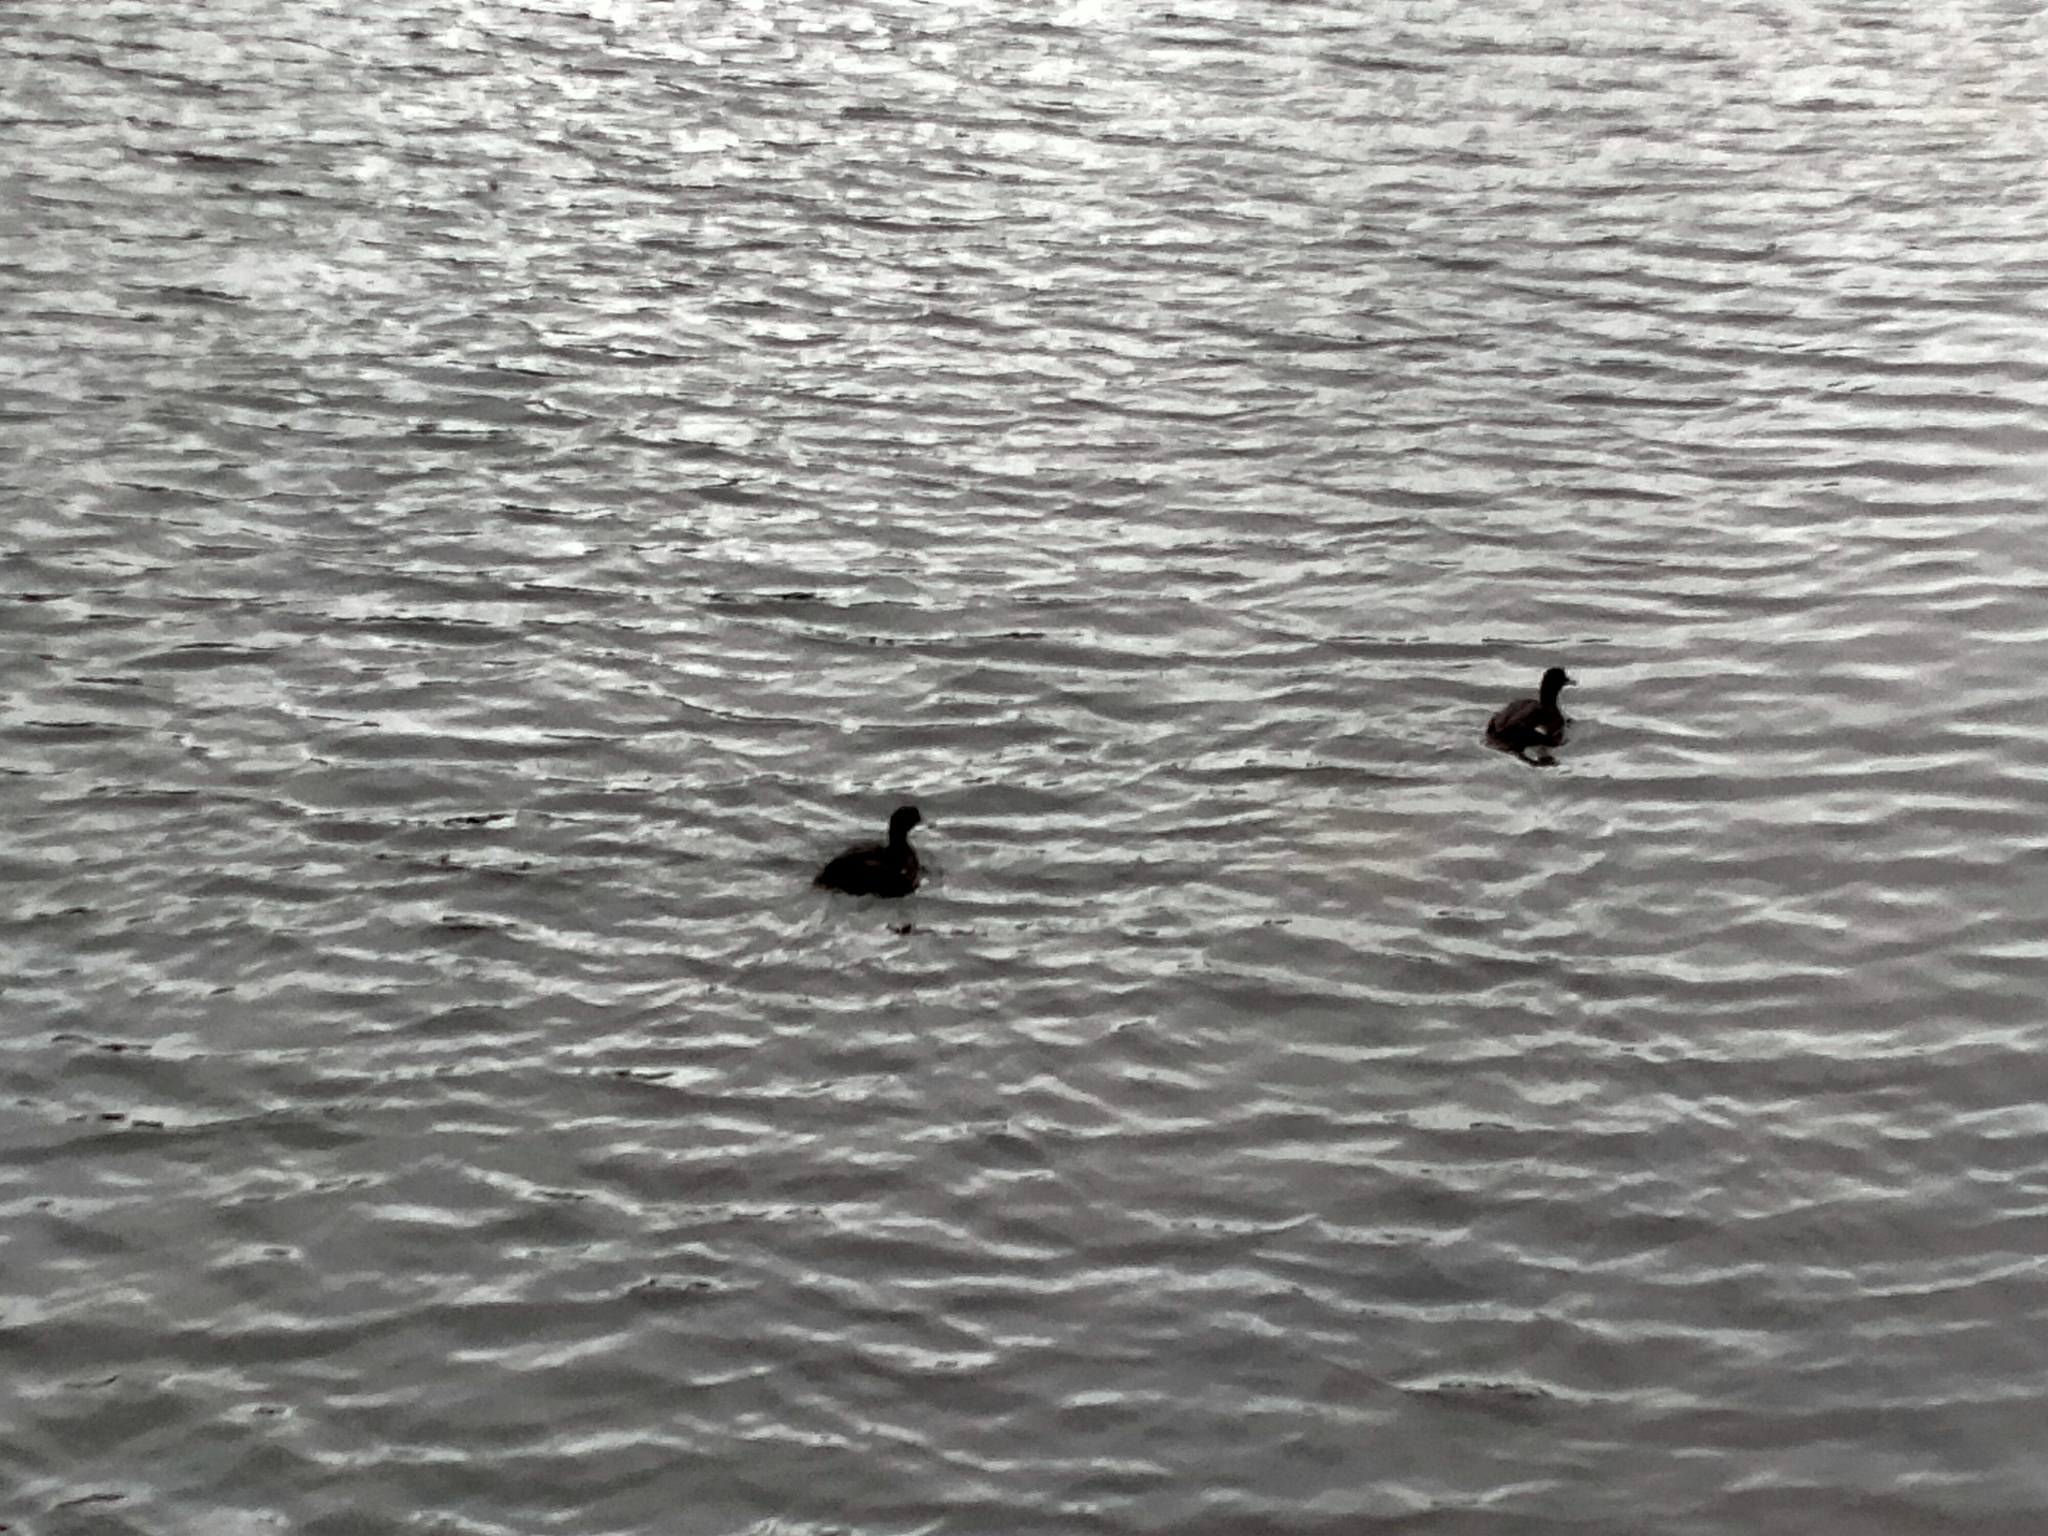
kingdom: Animalia
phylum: Chordata
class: Aves
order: Anseriformes
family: Anatidae
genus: Aythya
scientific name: Aythya novaeseelandiae
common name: New zealand scaup
